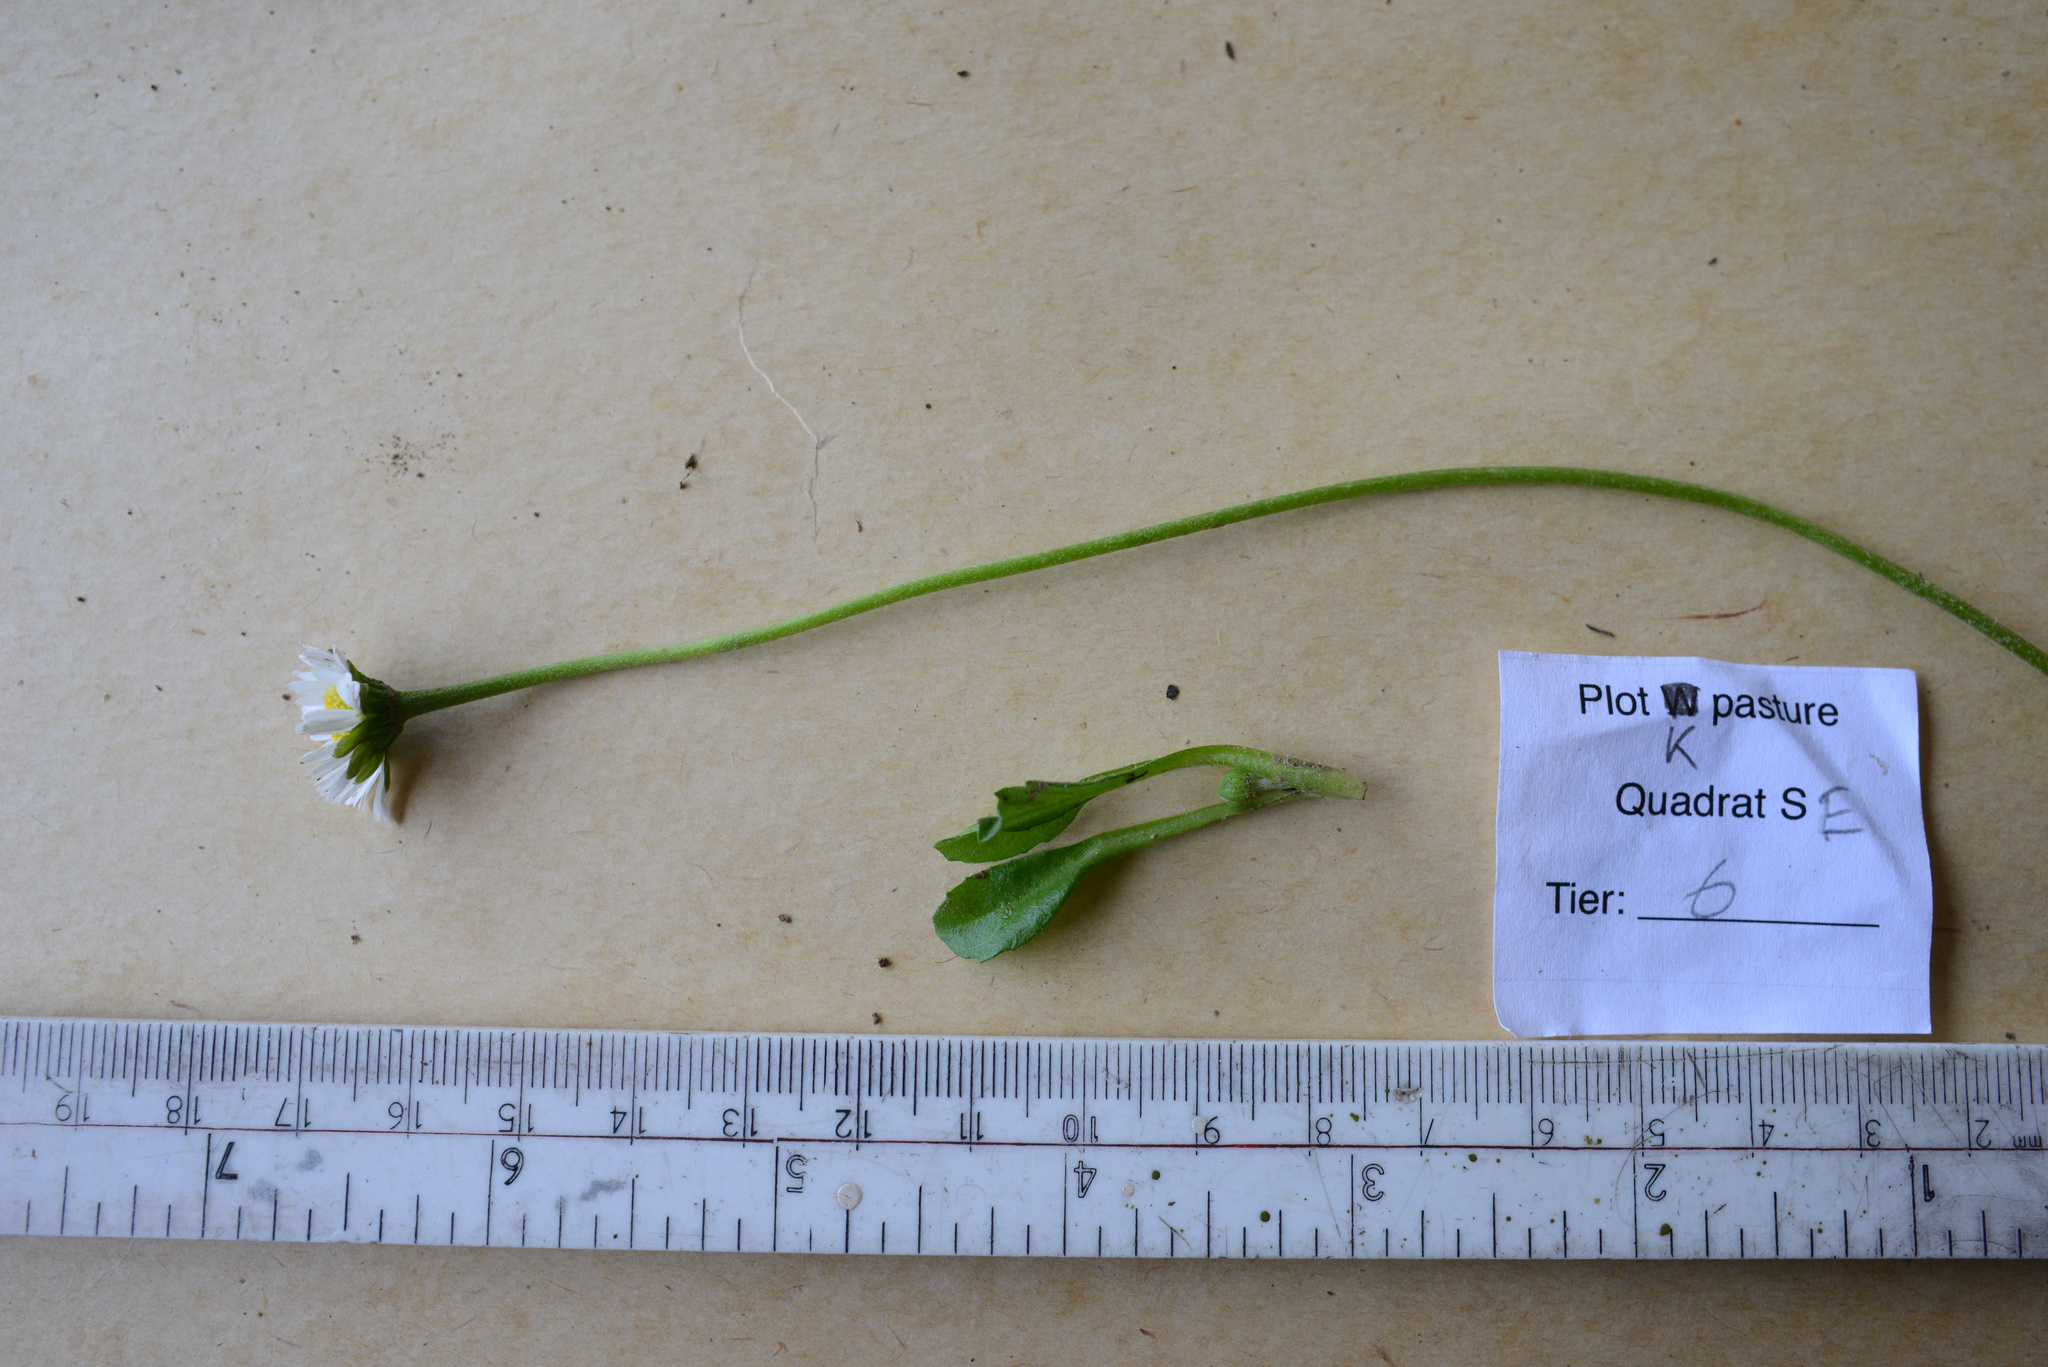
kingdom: Plantae
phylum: Tracheophyta
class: Magnoliopsida
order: Asterales
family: Asteraceae
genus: Bellis
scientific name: Bellis perennis
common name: Lawndaisy
